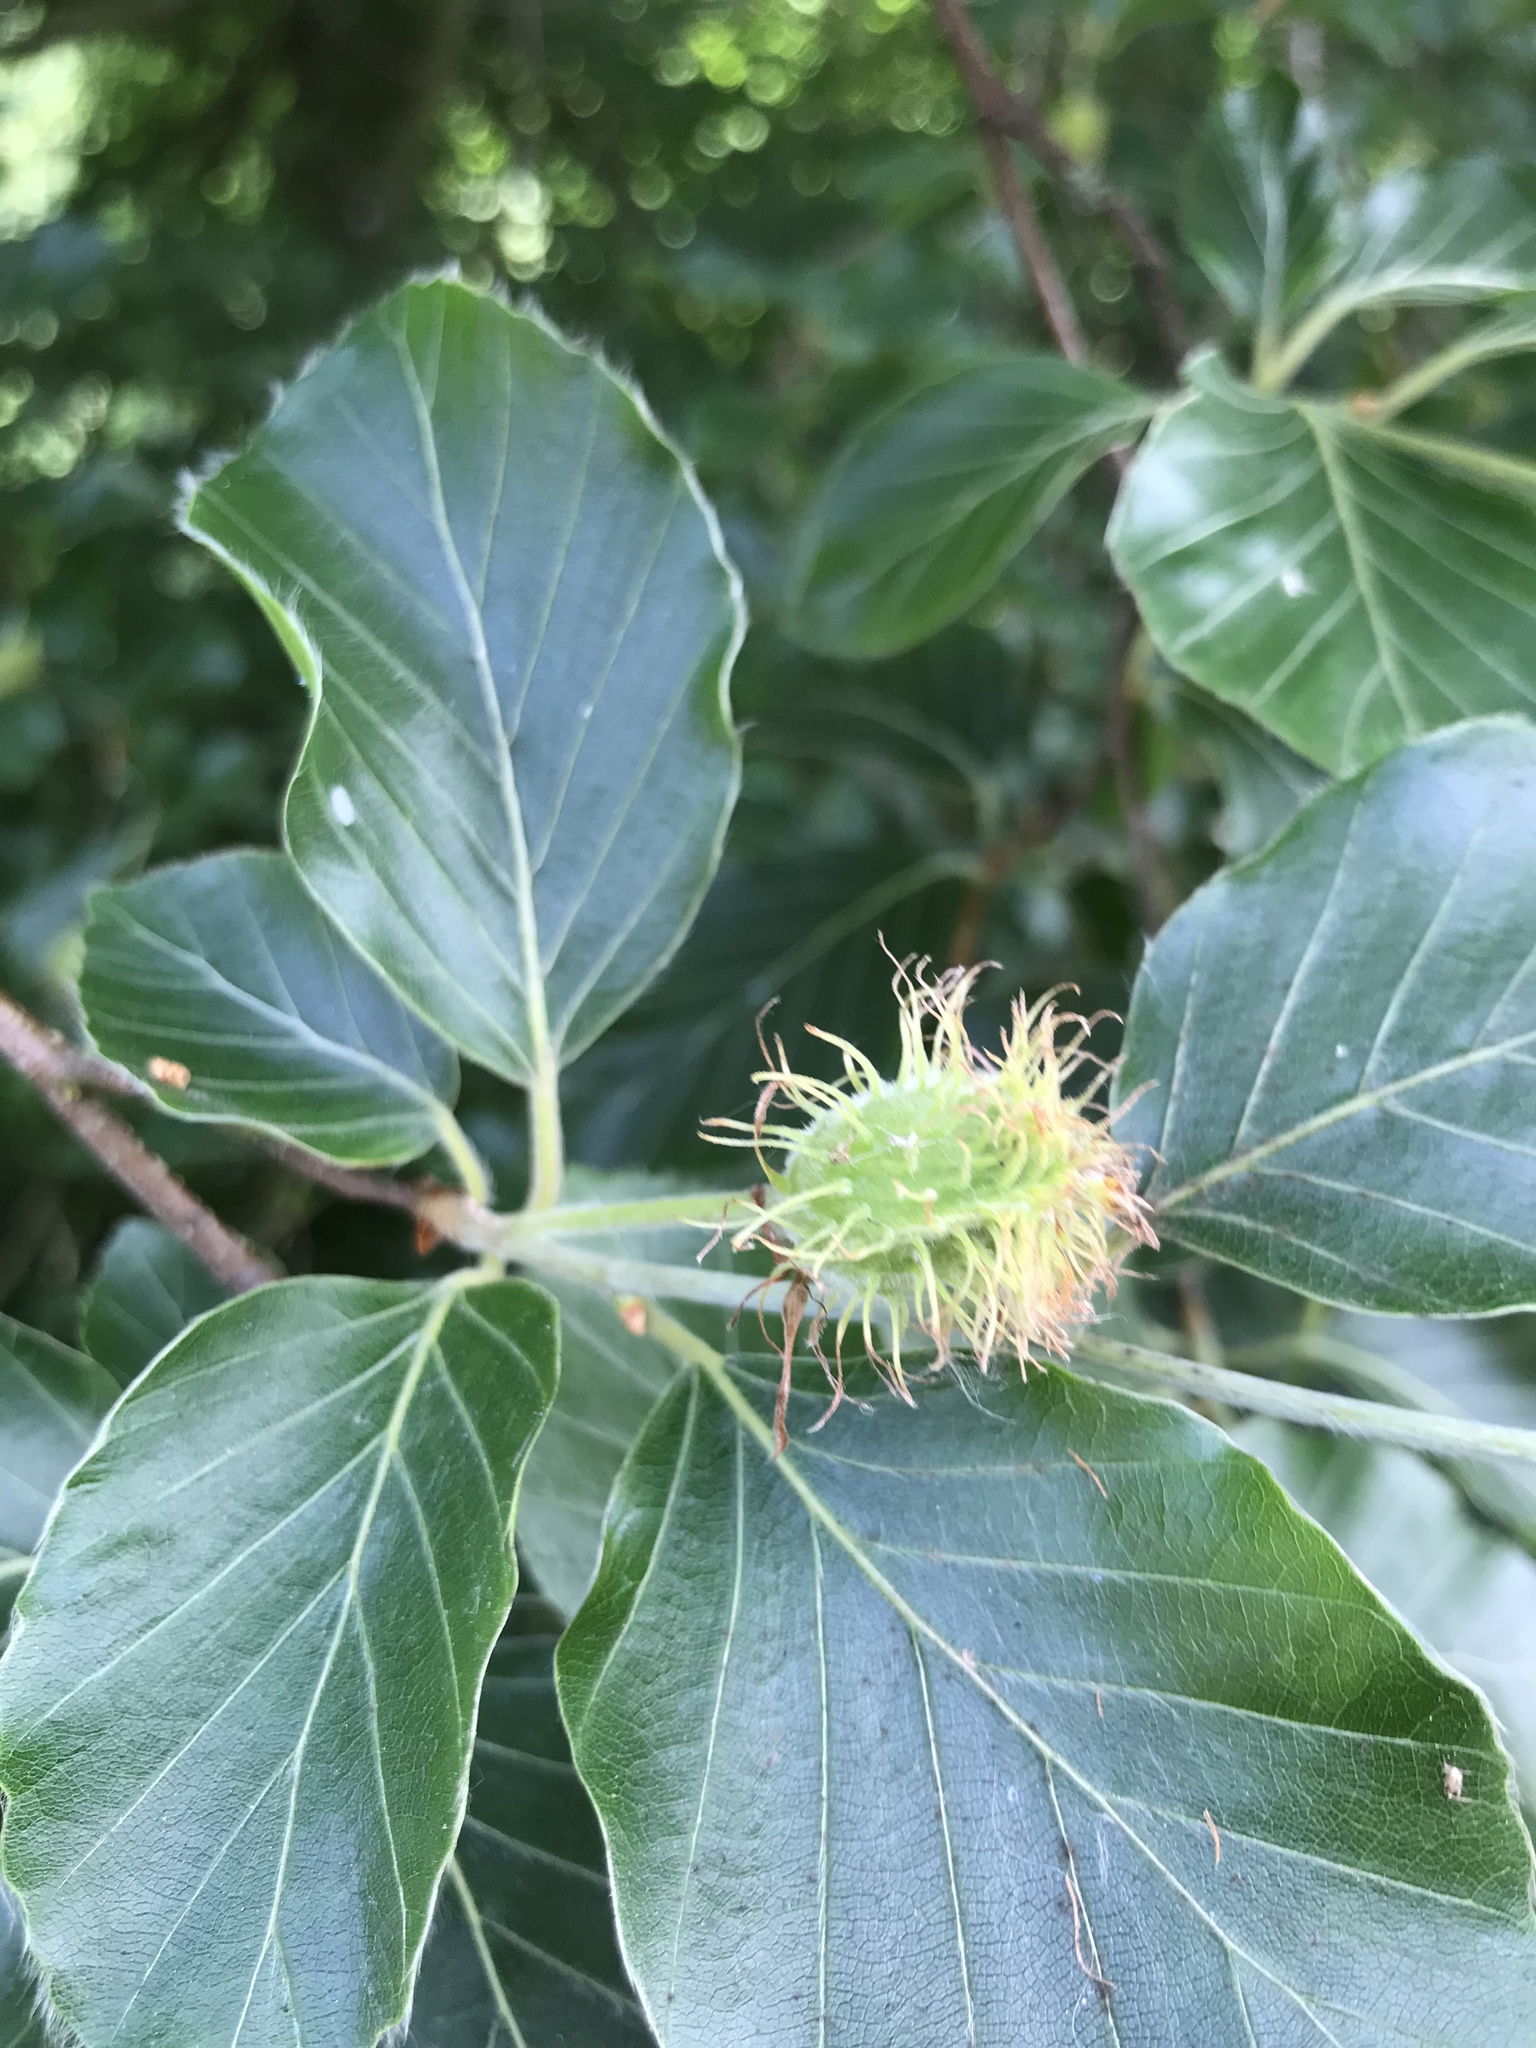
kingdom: Plantae
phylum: Tracheophyta
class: Magnoliopsida
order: Fagales
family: Fagaceae
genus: Fagus
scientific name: Fagus sylvatica
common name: Beech
